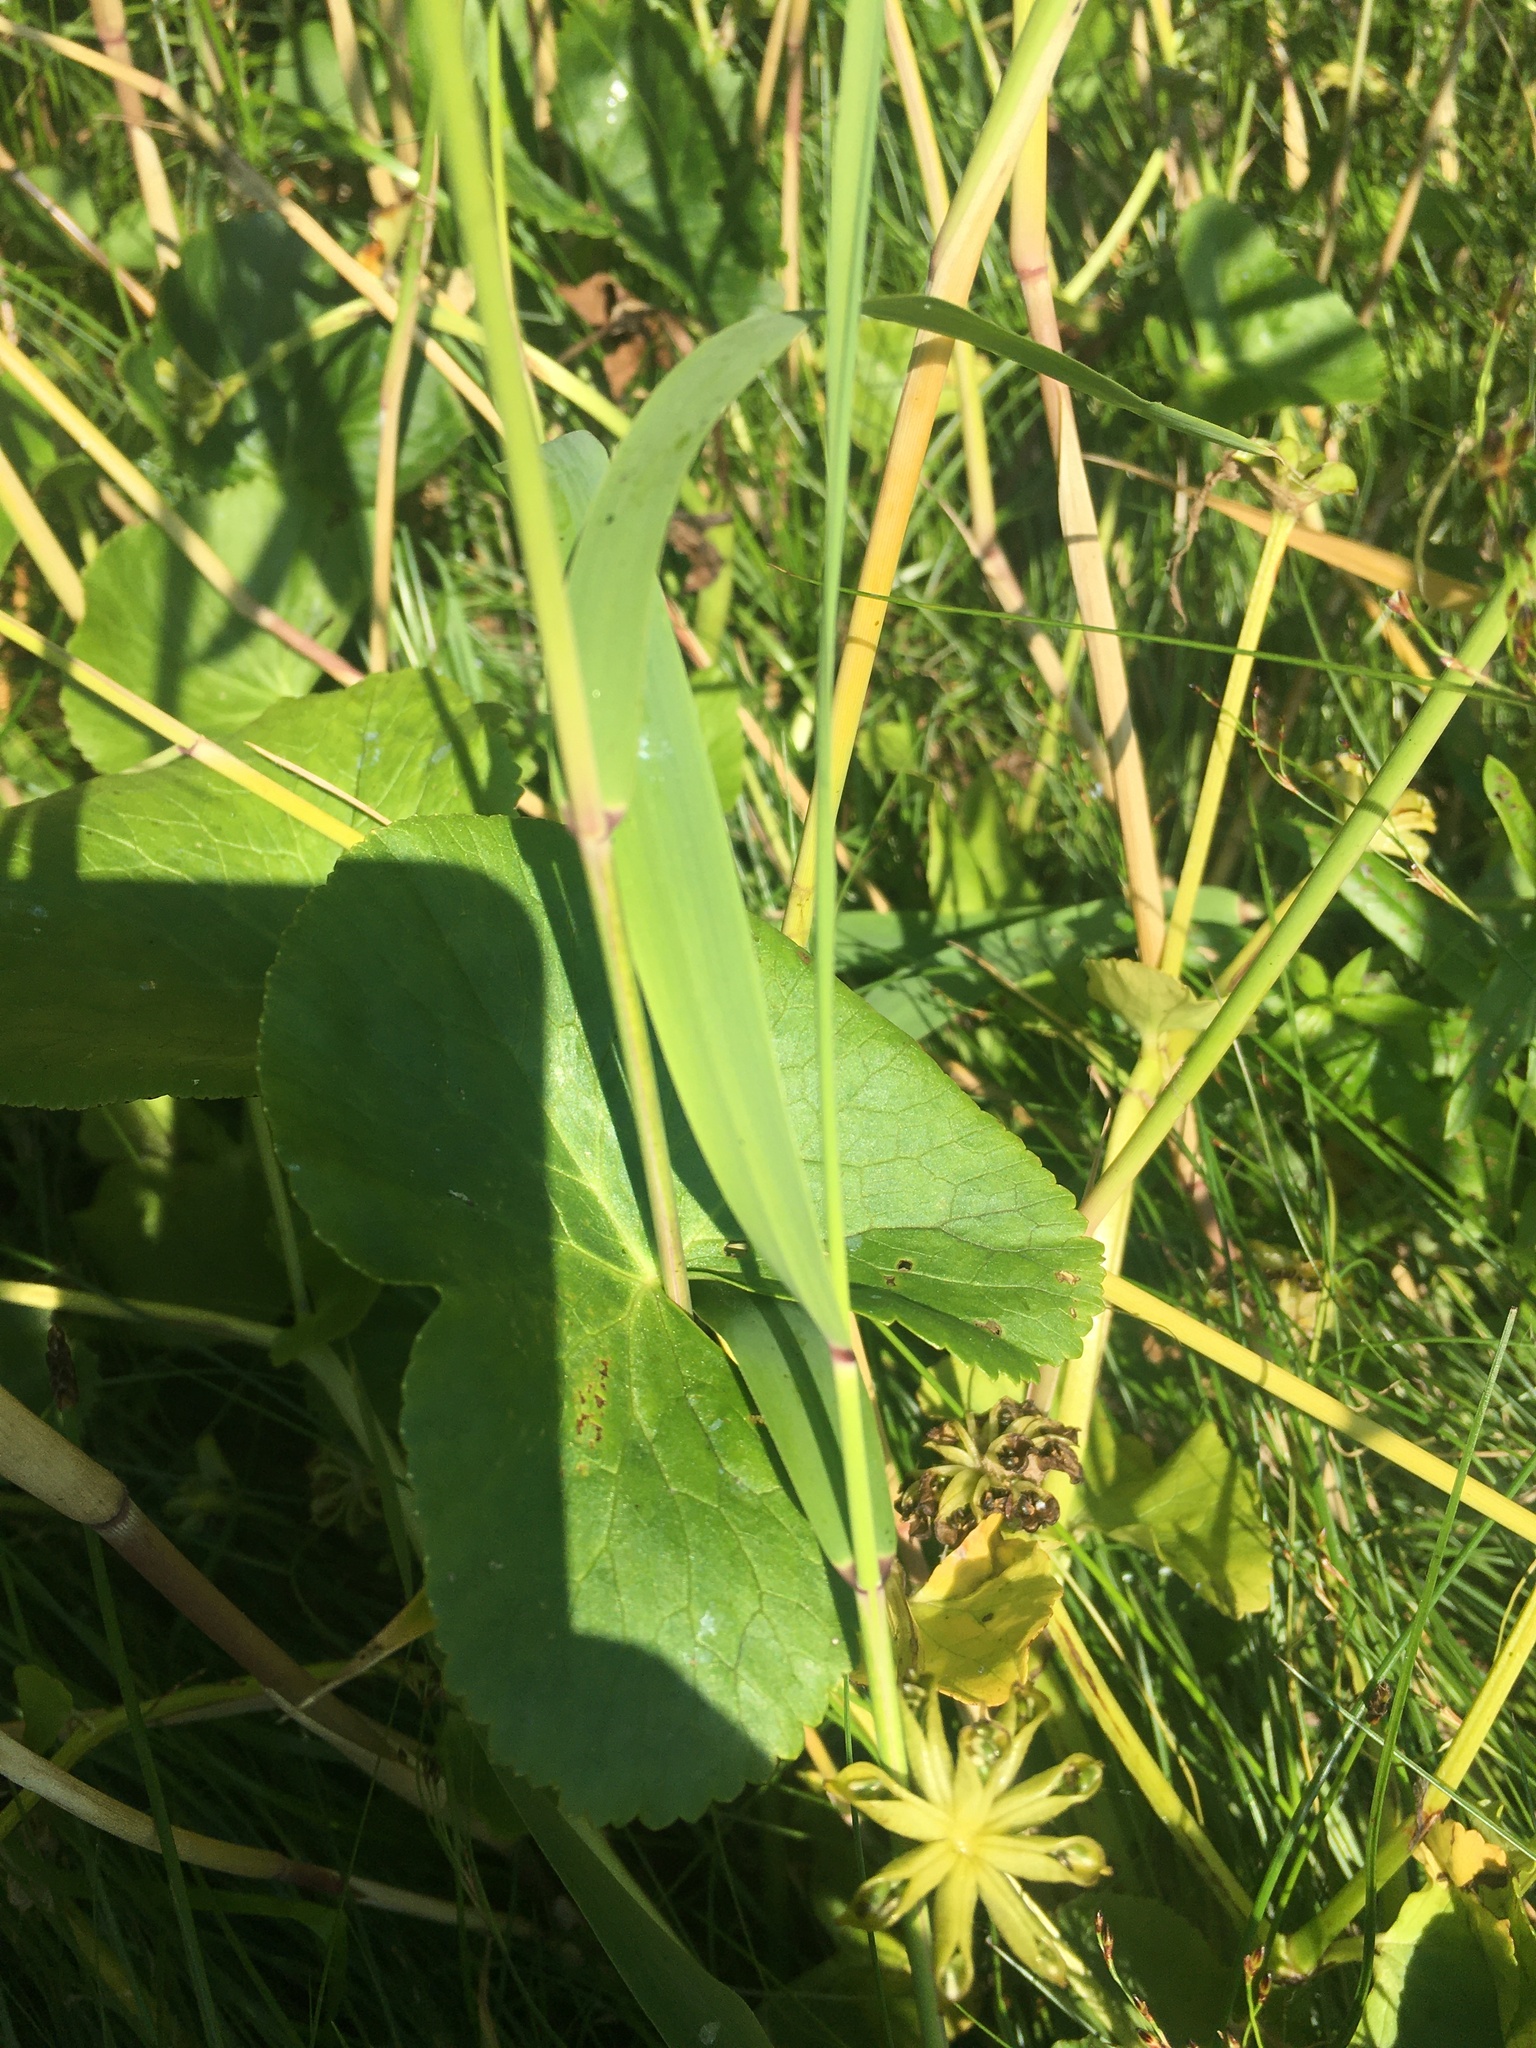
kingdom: Plantae
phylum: Tracheophyta
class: Magnoliopsida
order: Ranunculales
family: Ranunculaceae
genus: Caltha
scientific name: Caltha palustris
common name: Marsh marigold
